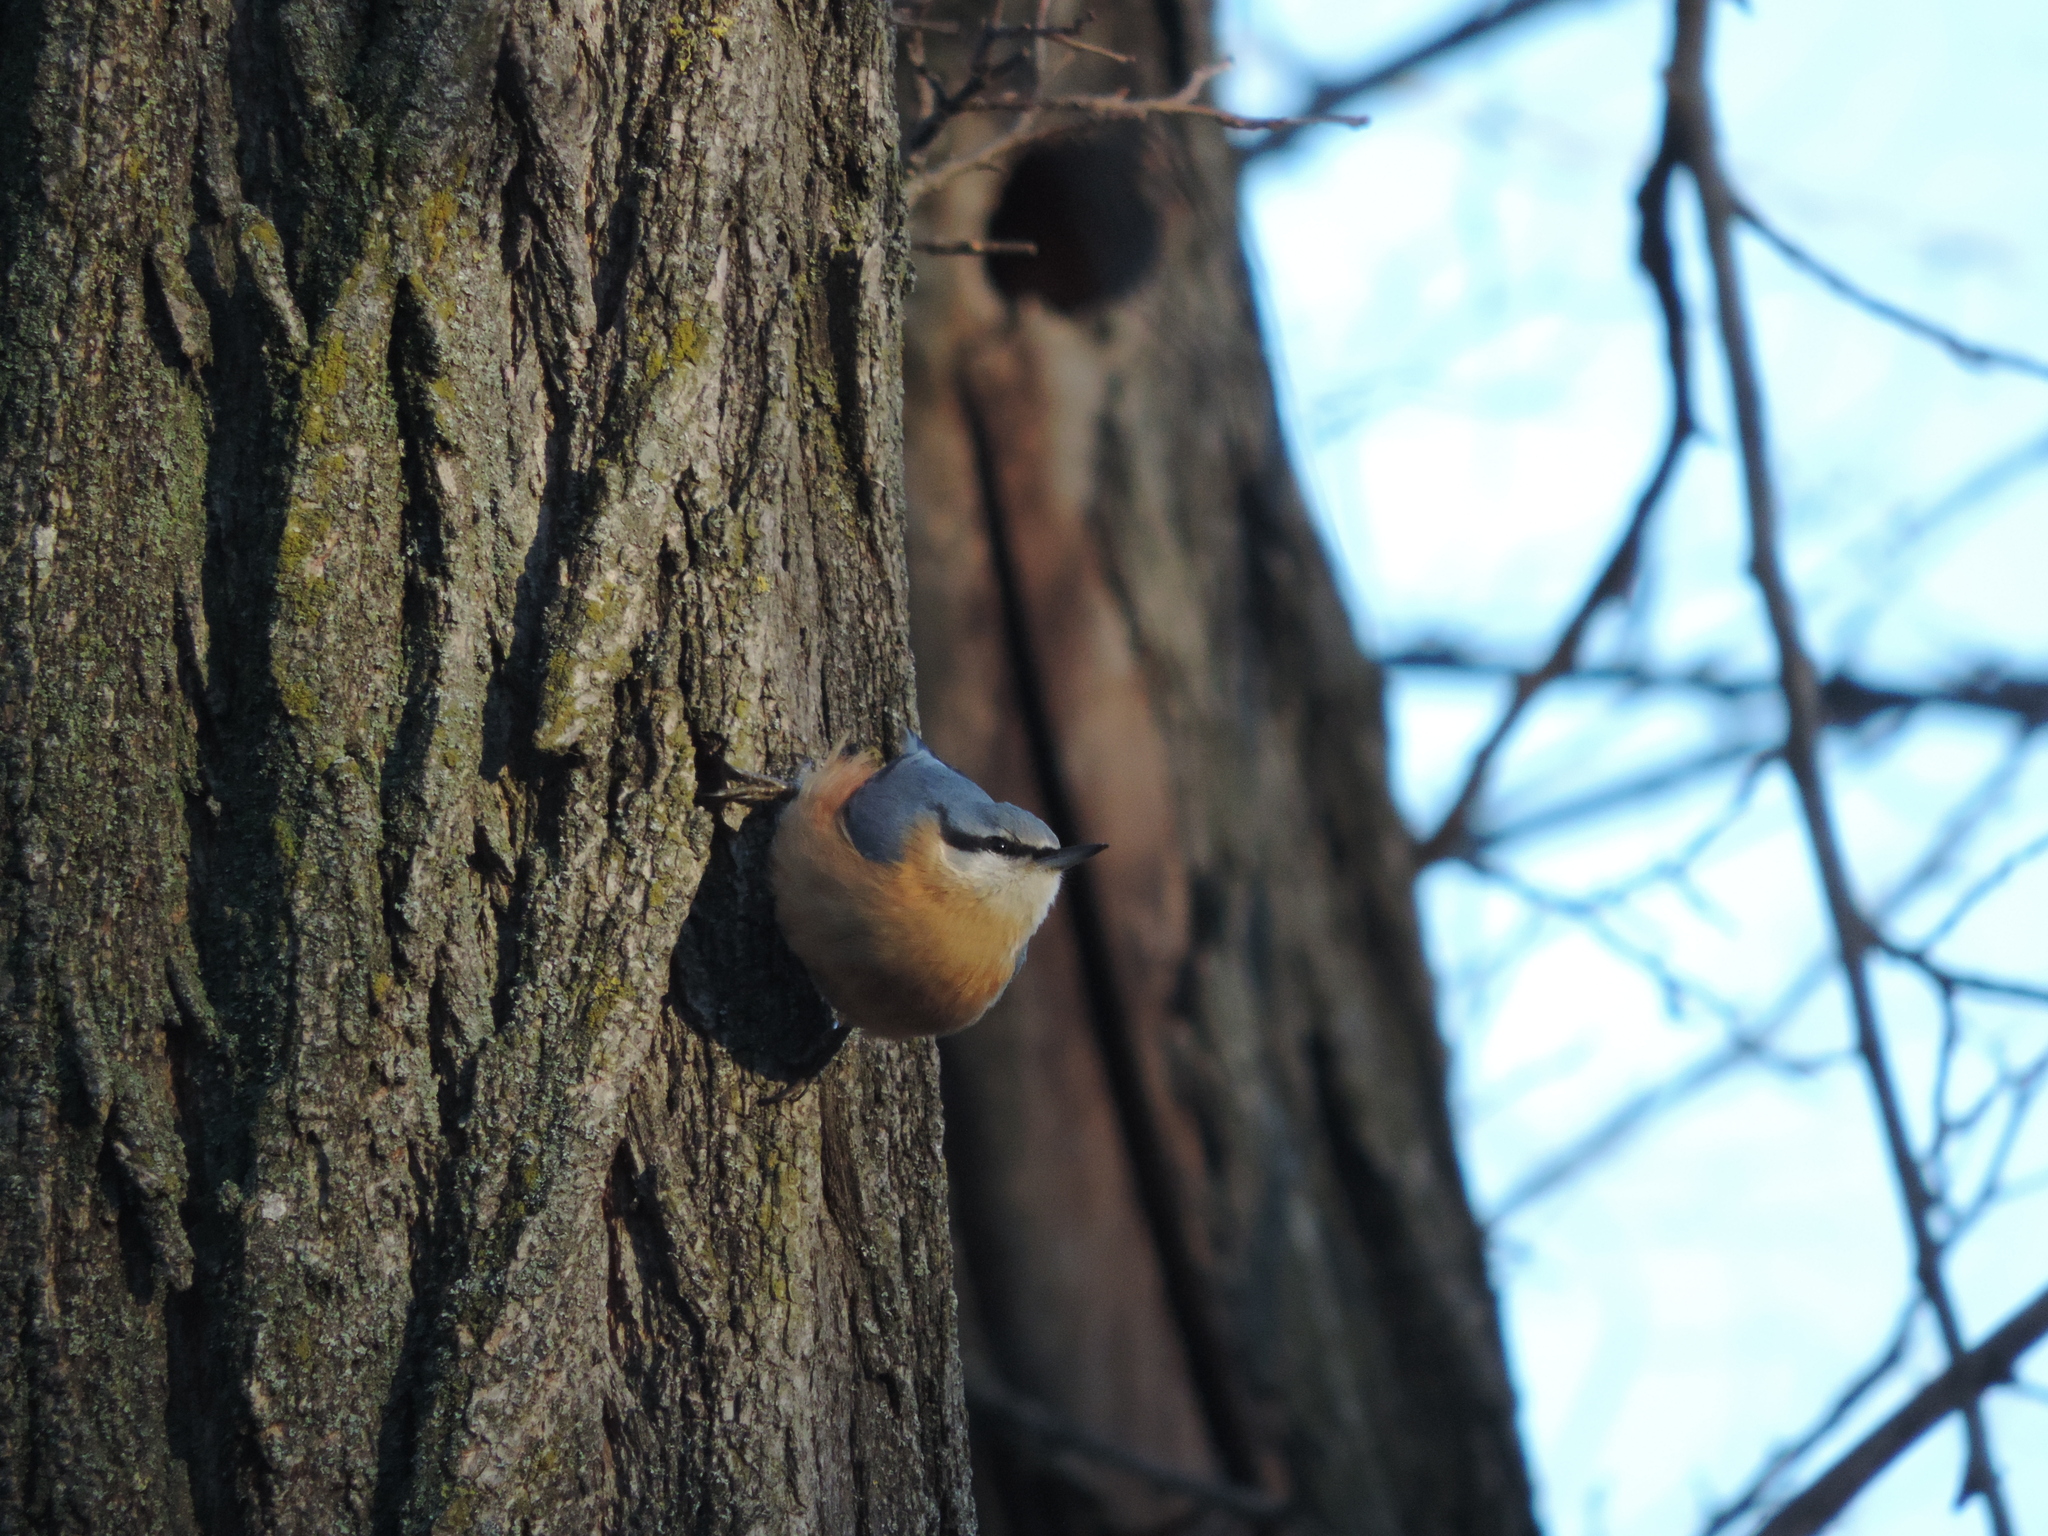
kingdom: Animalia
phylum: Chordata
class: Aves
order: Passeriformes
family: Sittidae
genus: Sitta
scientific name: Sitta europaea
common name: Eurasian nuthatch
